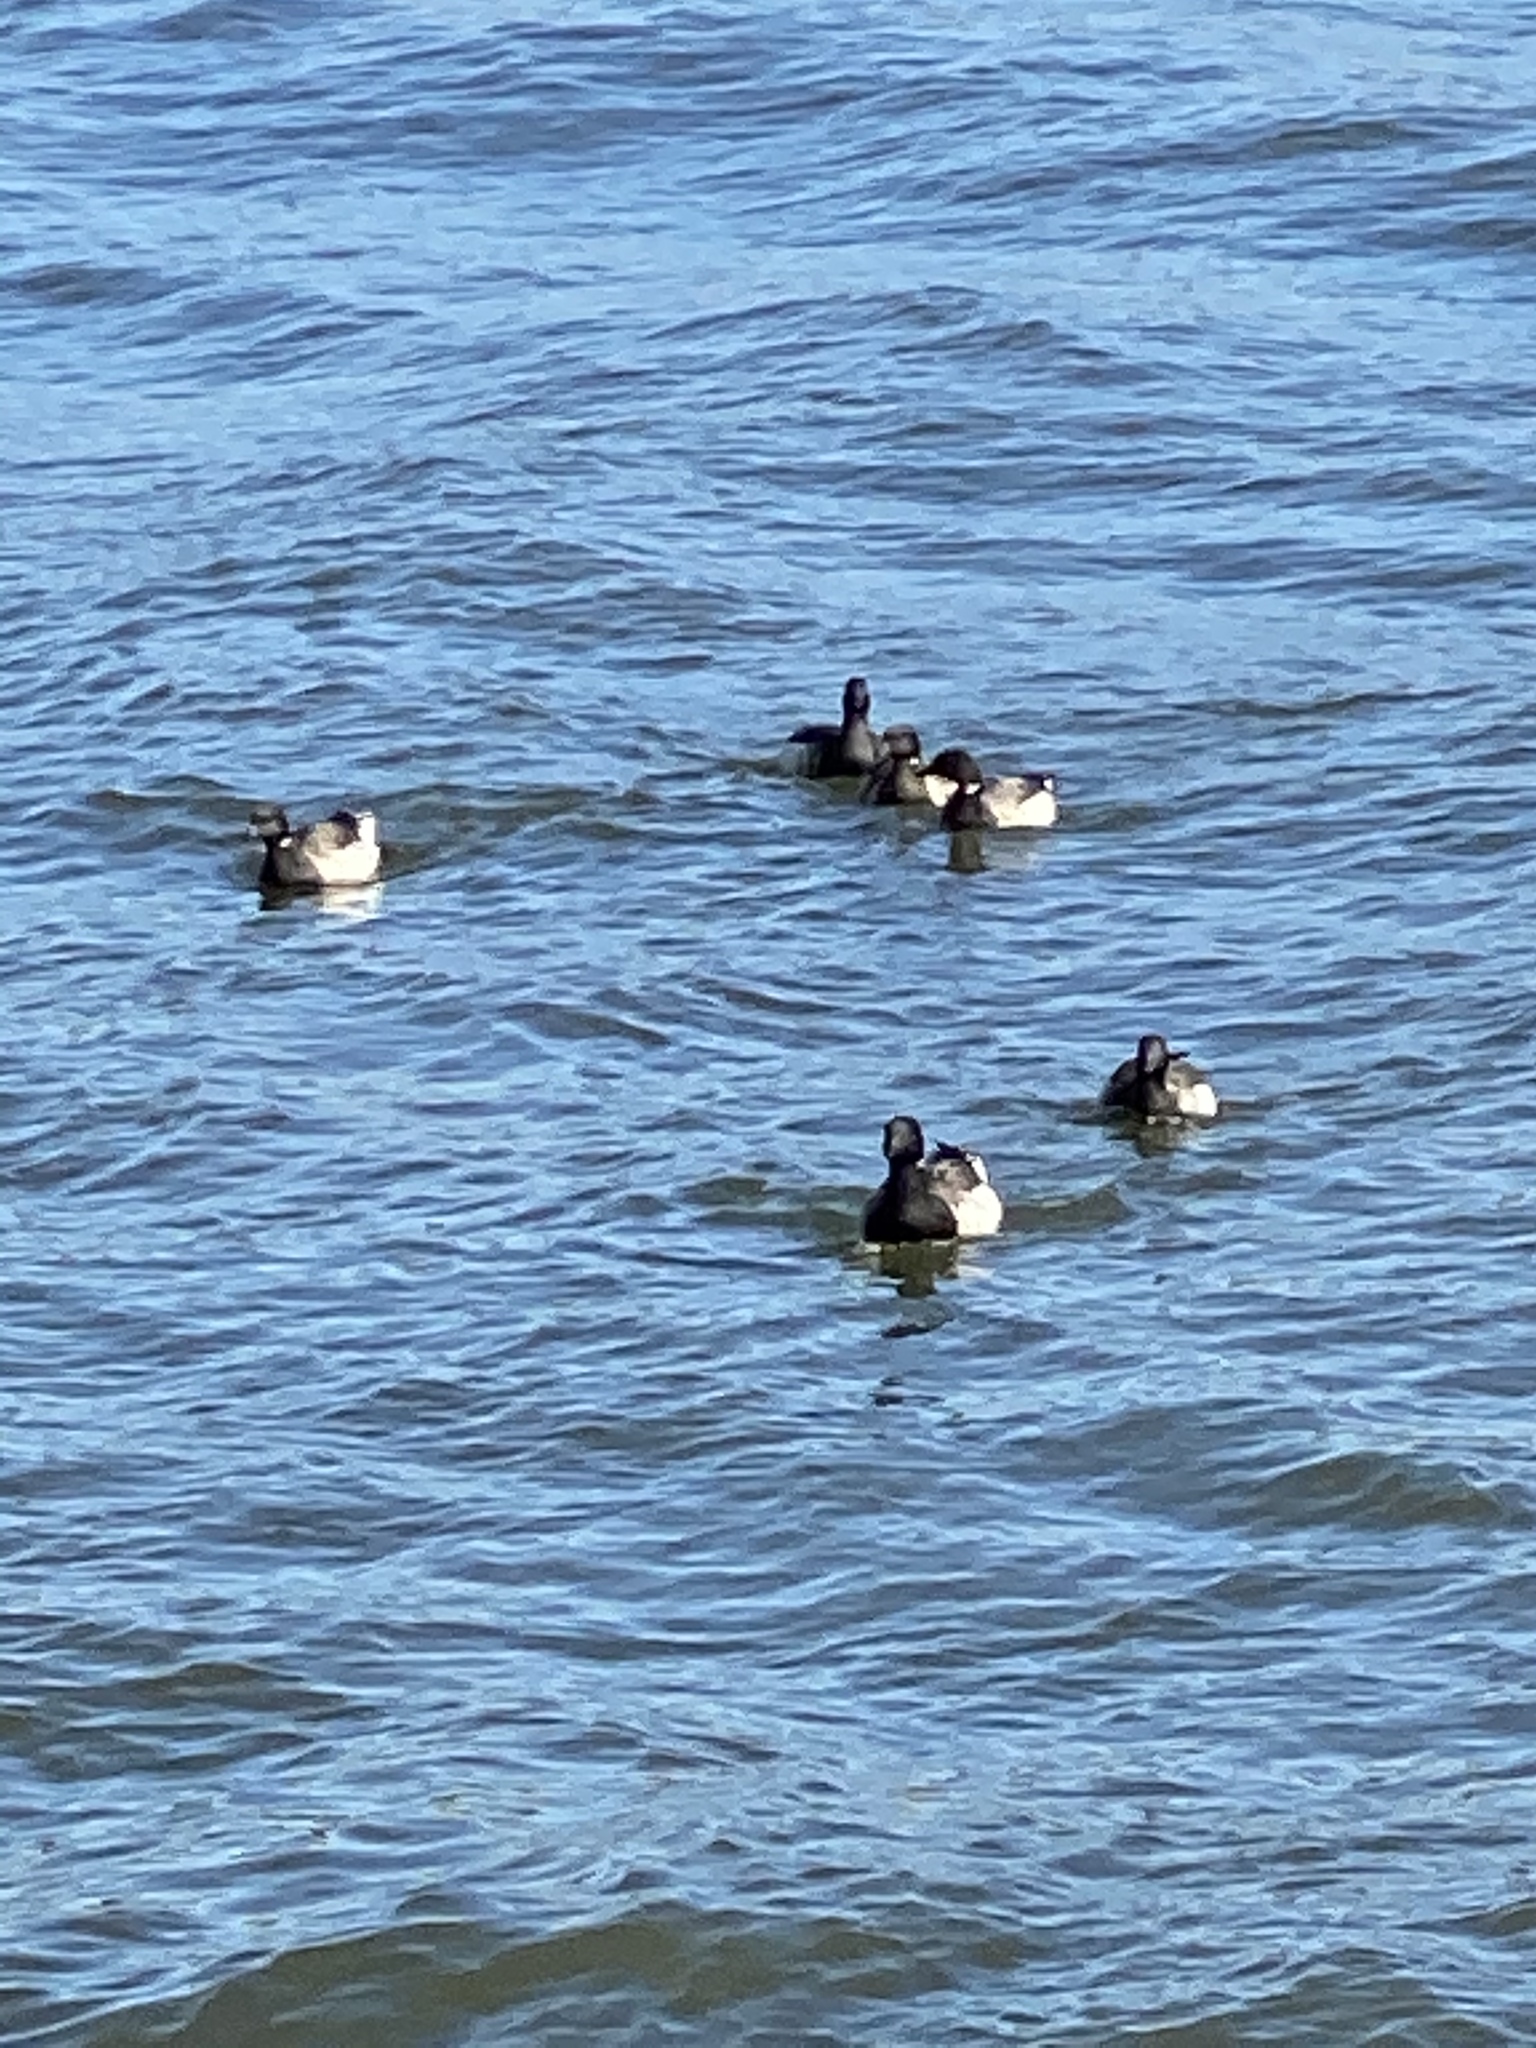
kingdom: Animalia
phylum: Chordata
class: Aves
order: Anseriformes
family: Anatidae
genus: Branta
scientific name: Branta bernicla
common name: Brant goose
